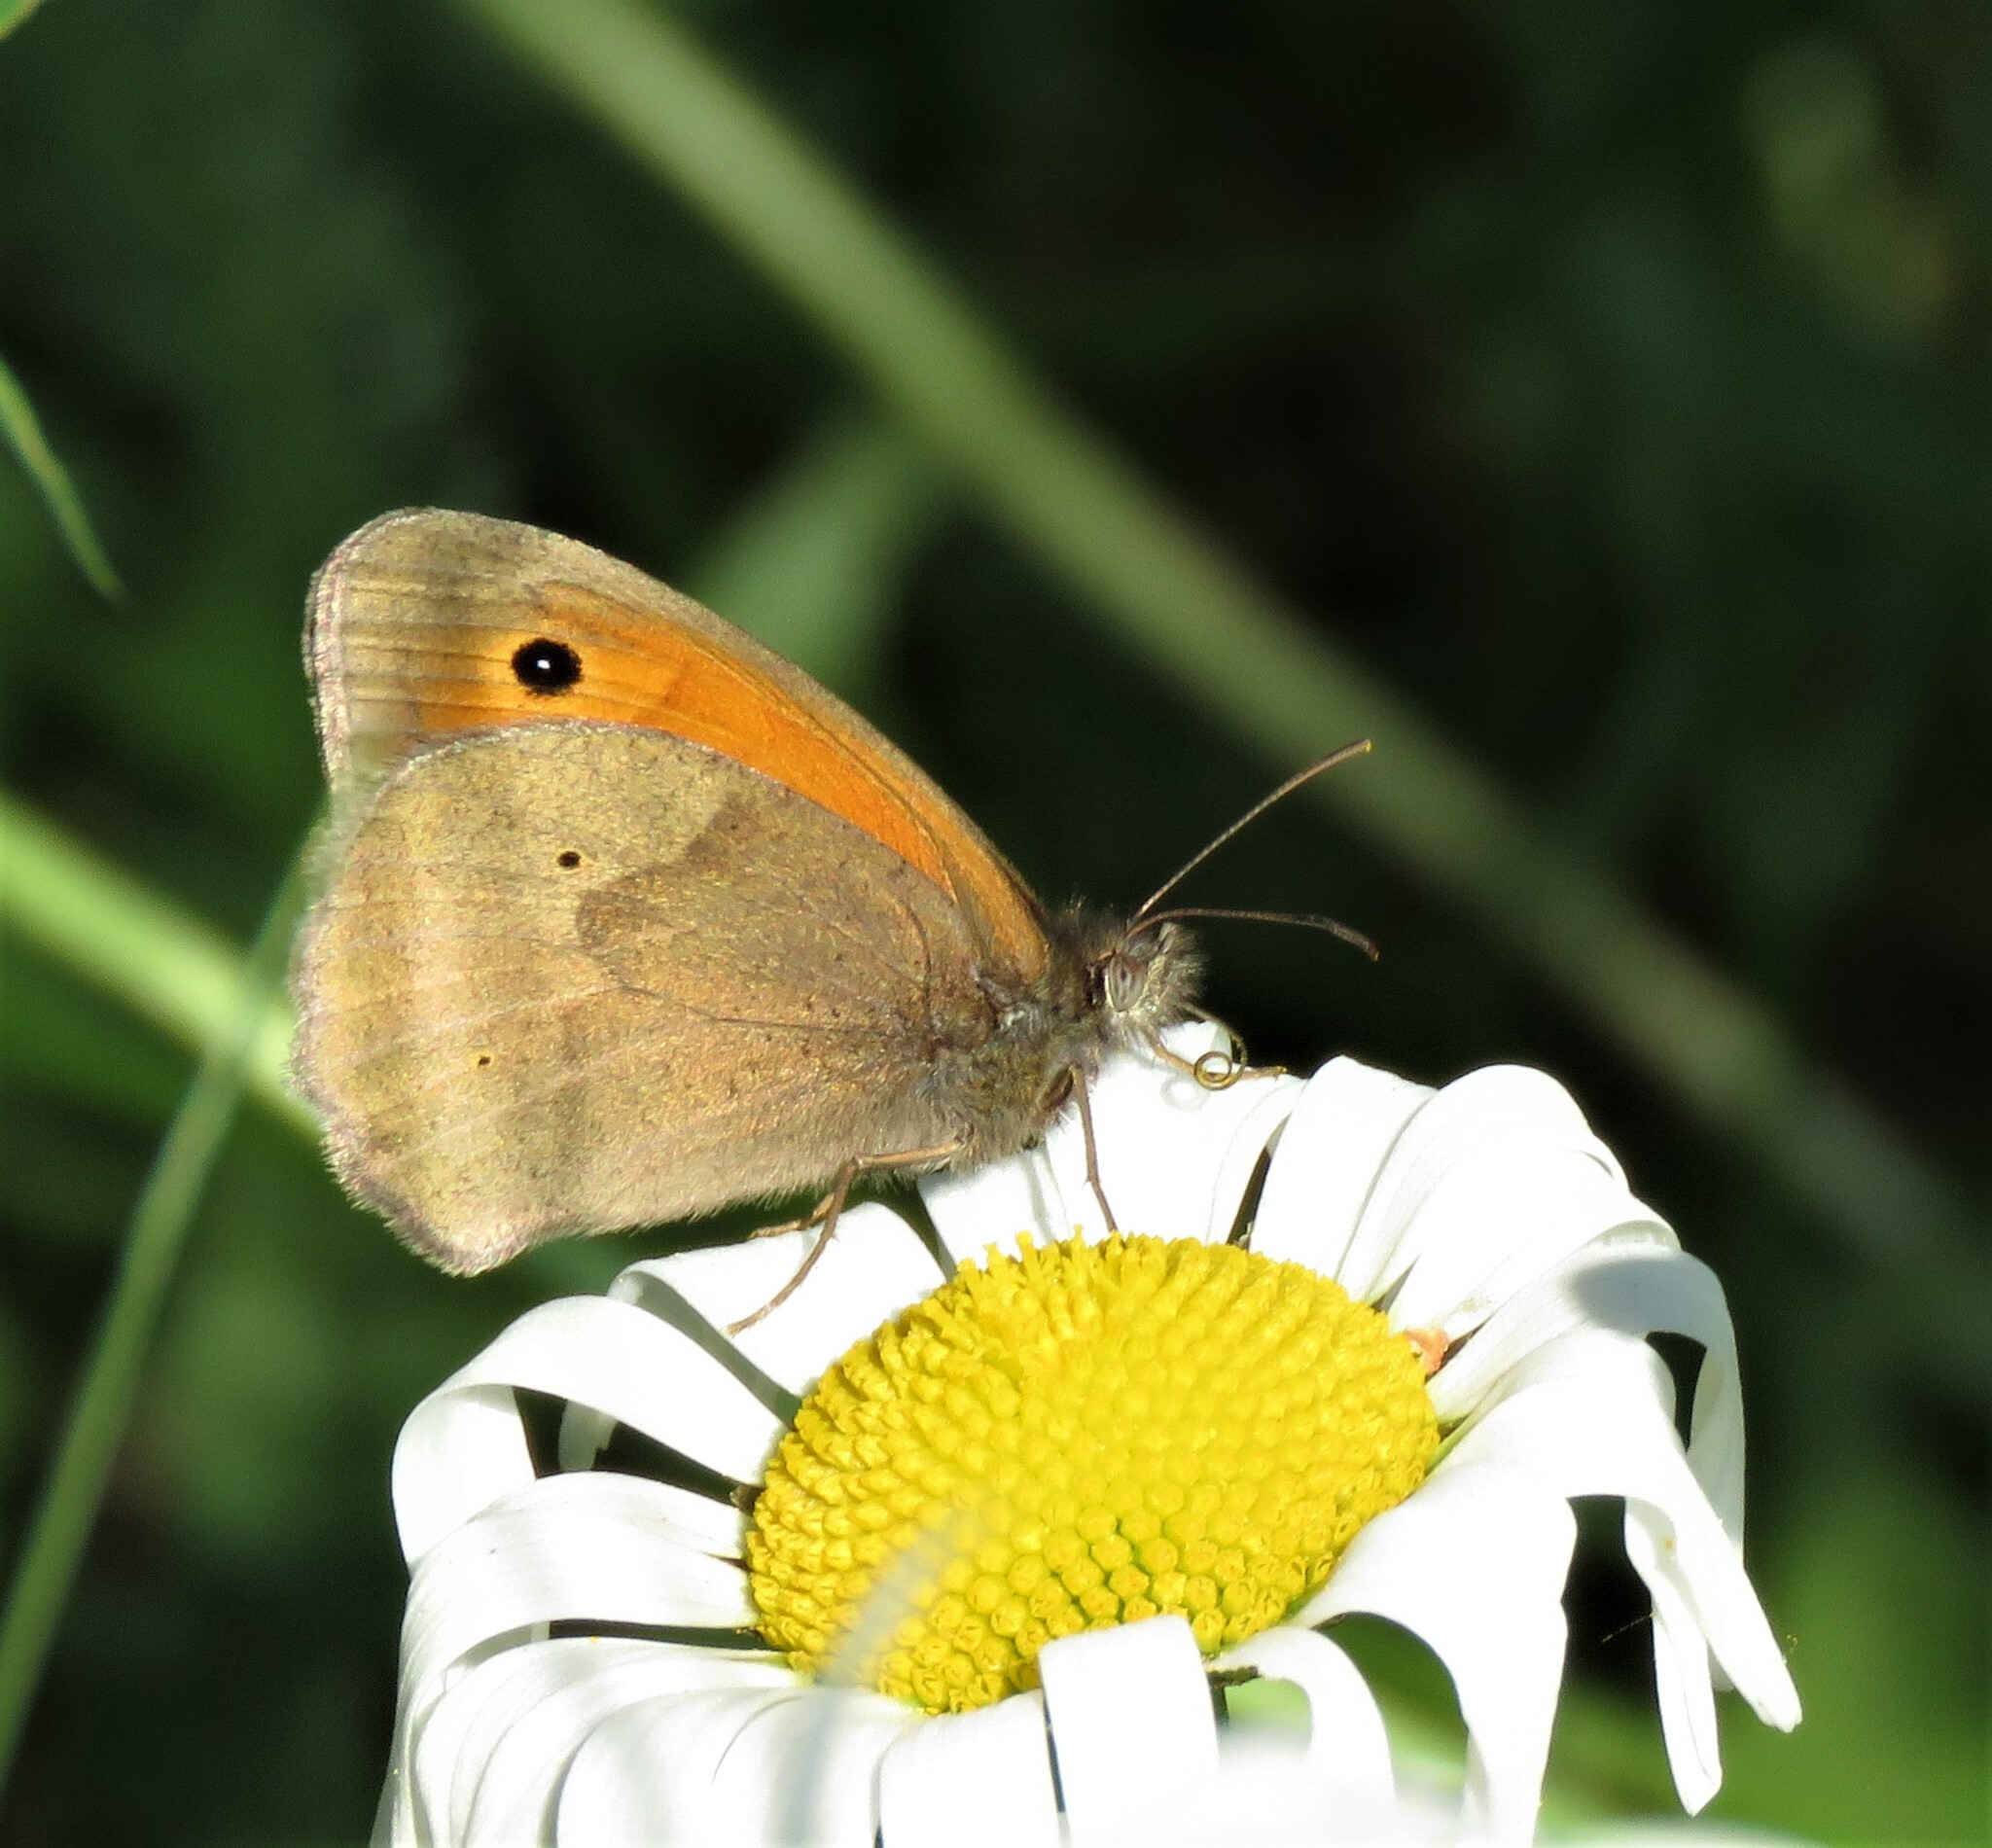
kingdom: Animalia
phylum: Arthropoda
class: Insecta
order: Lepidoptera
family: Nymphalidae
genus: Maniola
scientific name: Maniola jurtina
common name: Meadow brown
